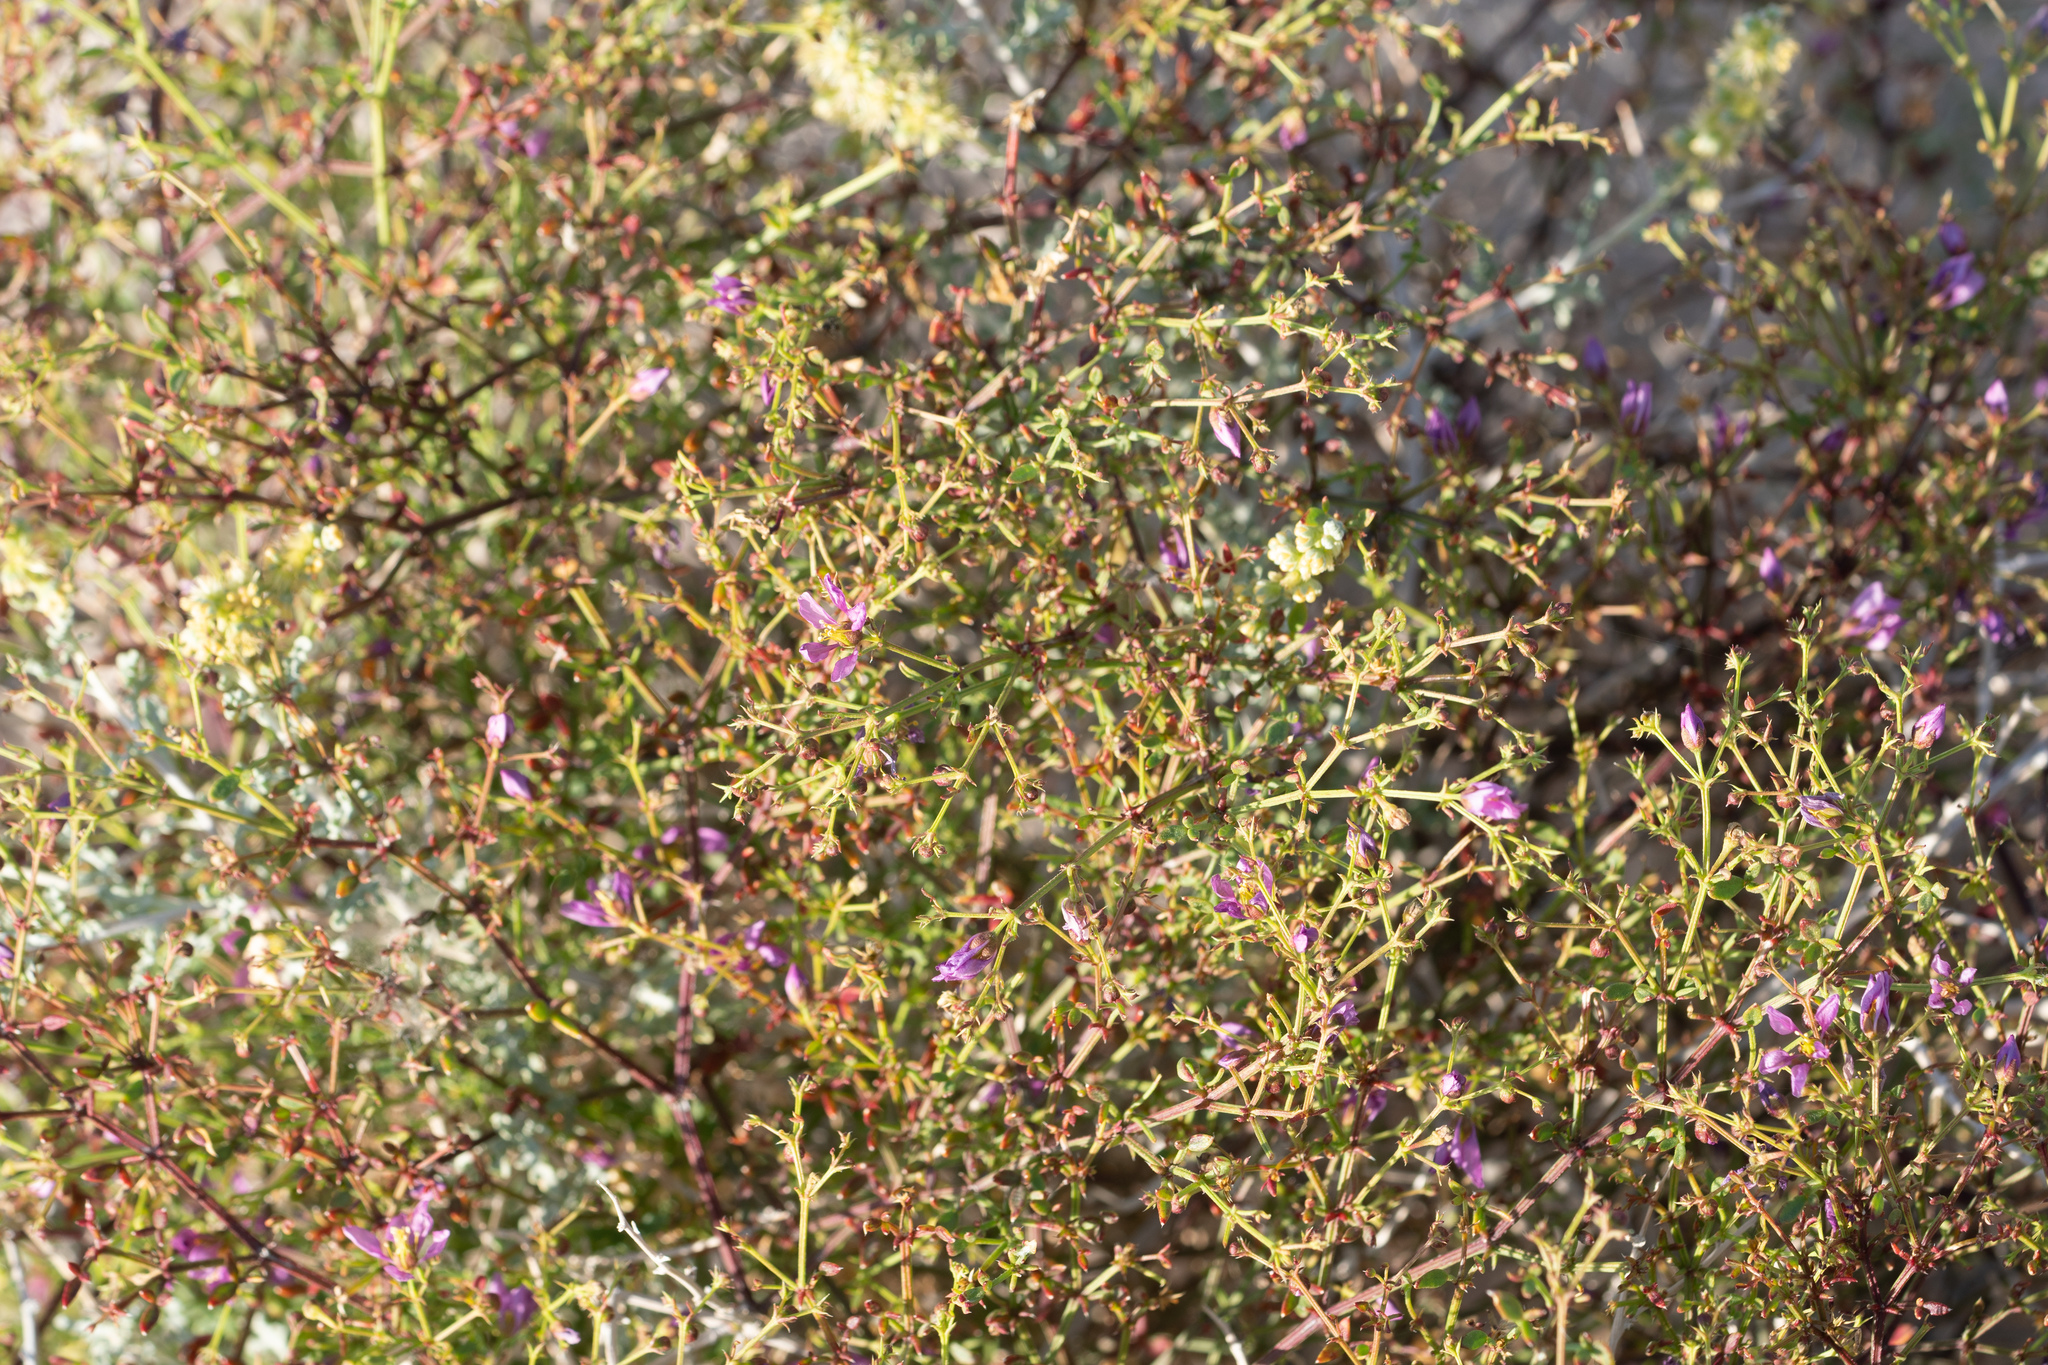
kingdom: Plantae
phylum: Tracheophyta
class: Magnoliopsida
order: Zygophyllales
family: Zygophyllaceae
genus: Fagonia
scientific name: Fagonia laevis
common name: California fagonbush
